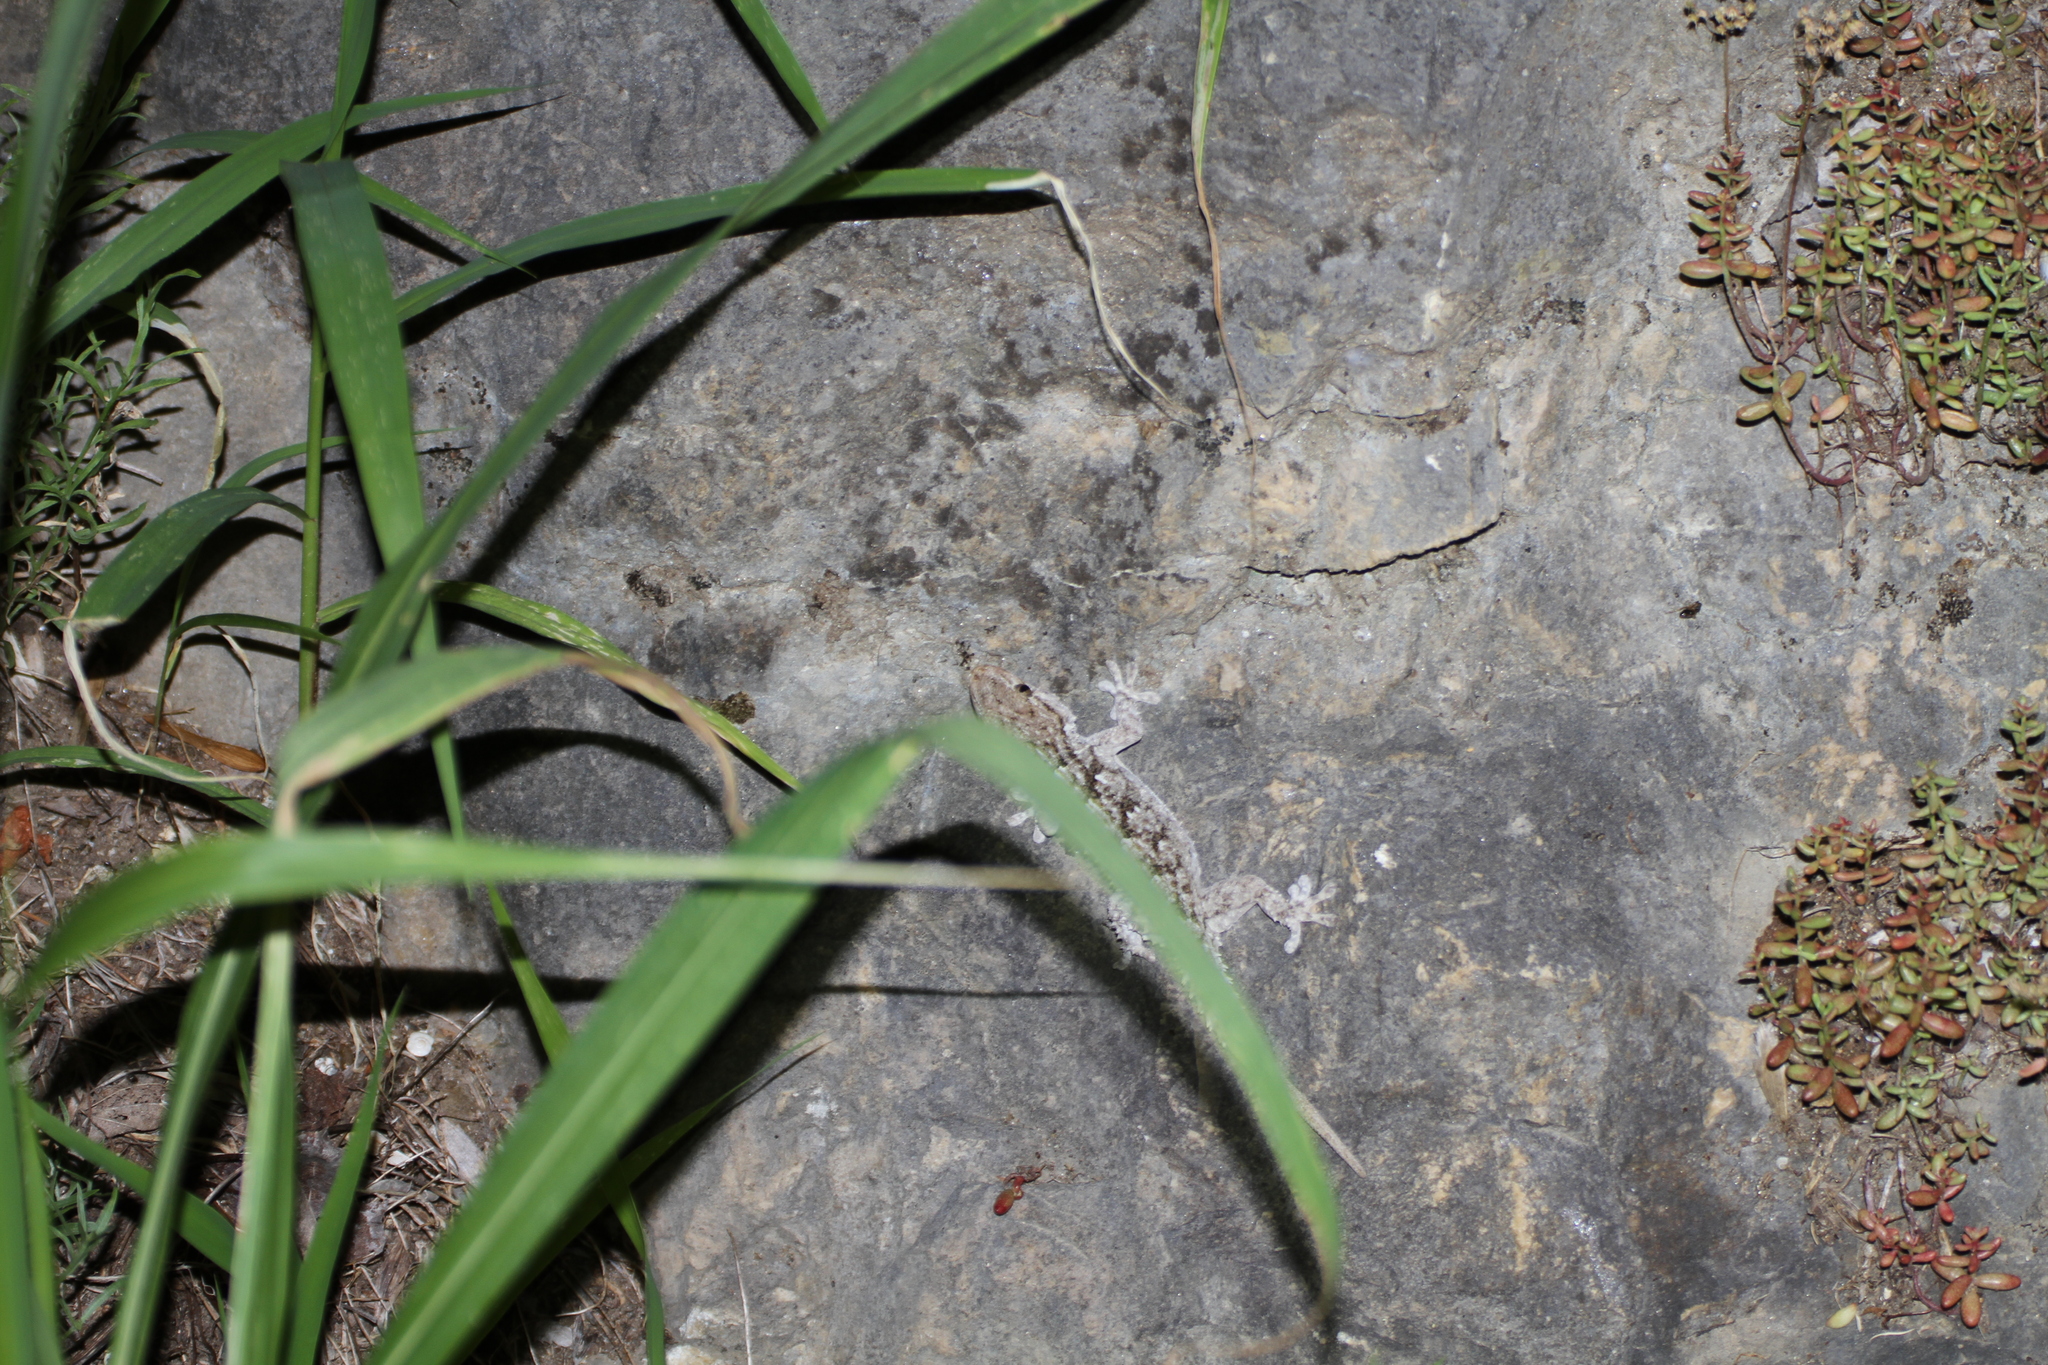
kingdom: Animalia
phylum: Chordata
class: Squamata
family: Phyllodactylidae
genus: Tarentola
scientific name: Tarentola mauritanica
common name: Moorish gecko
